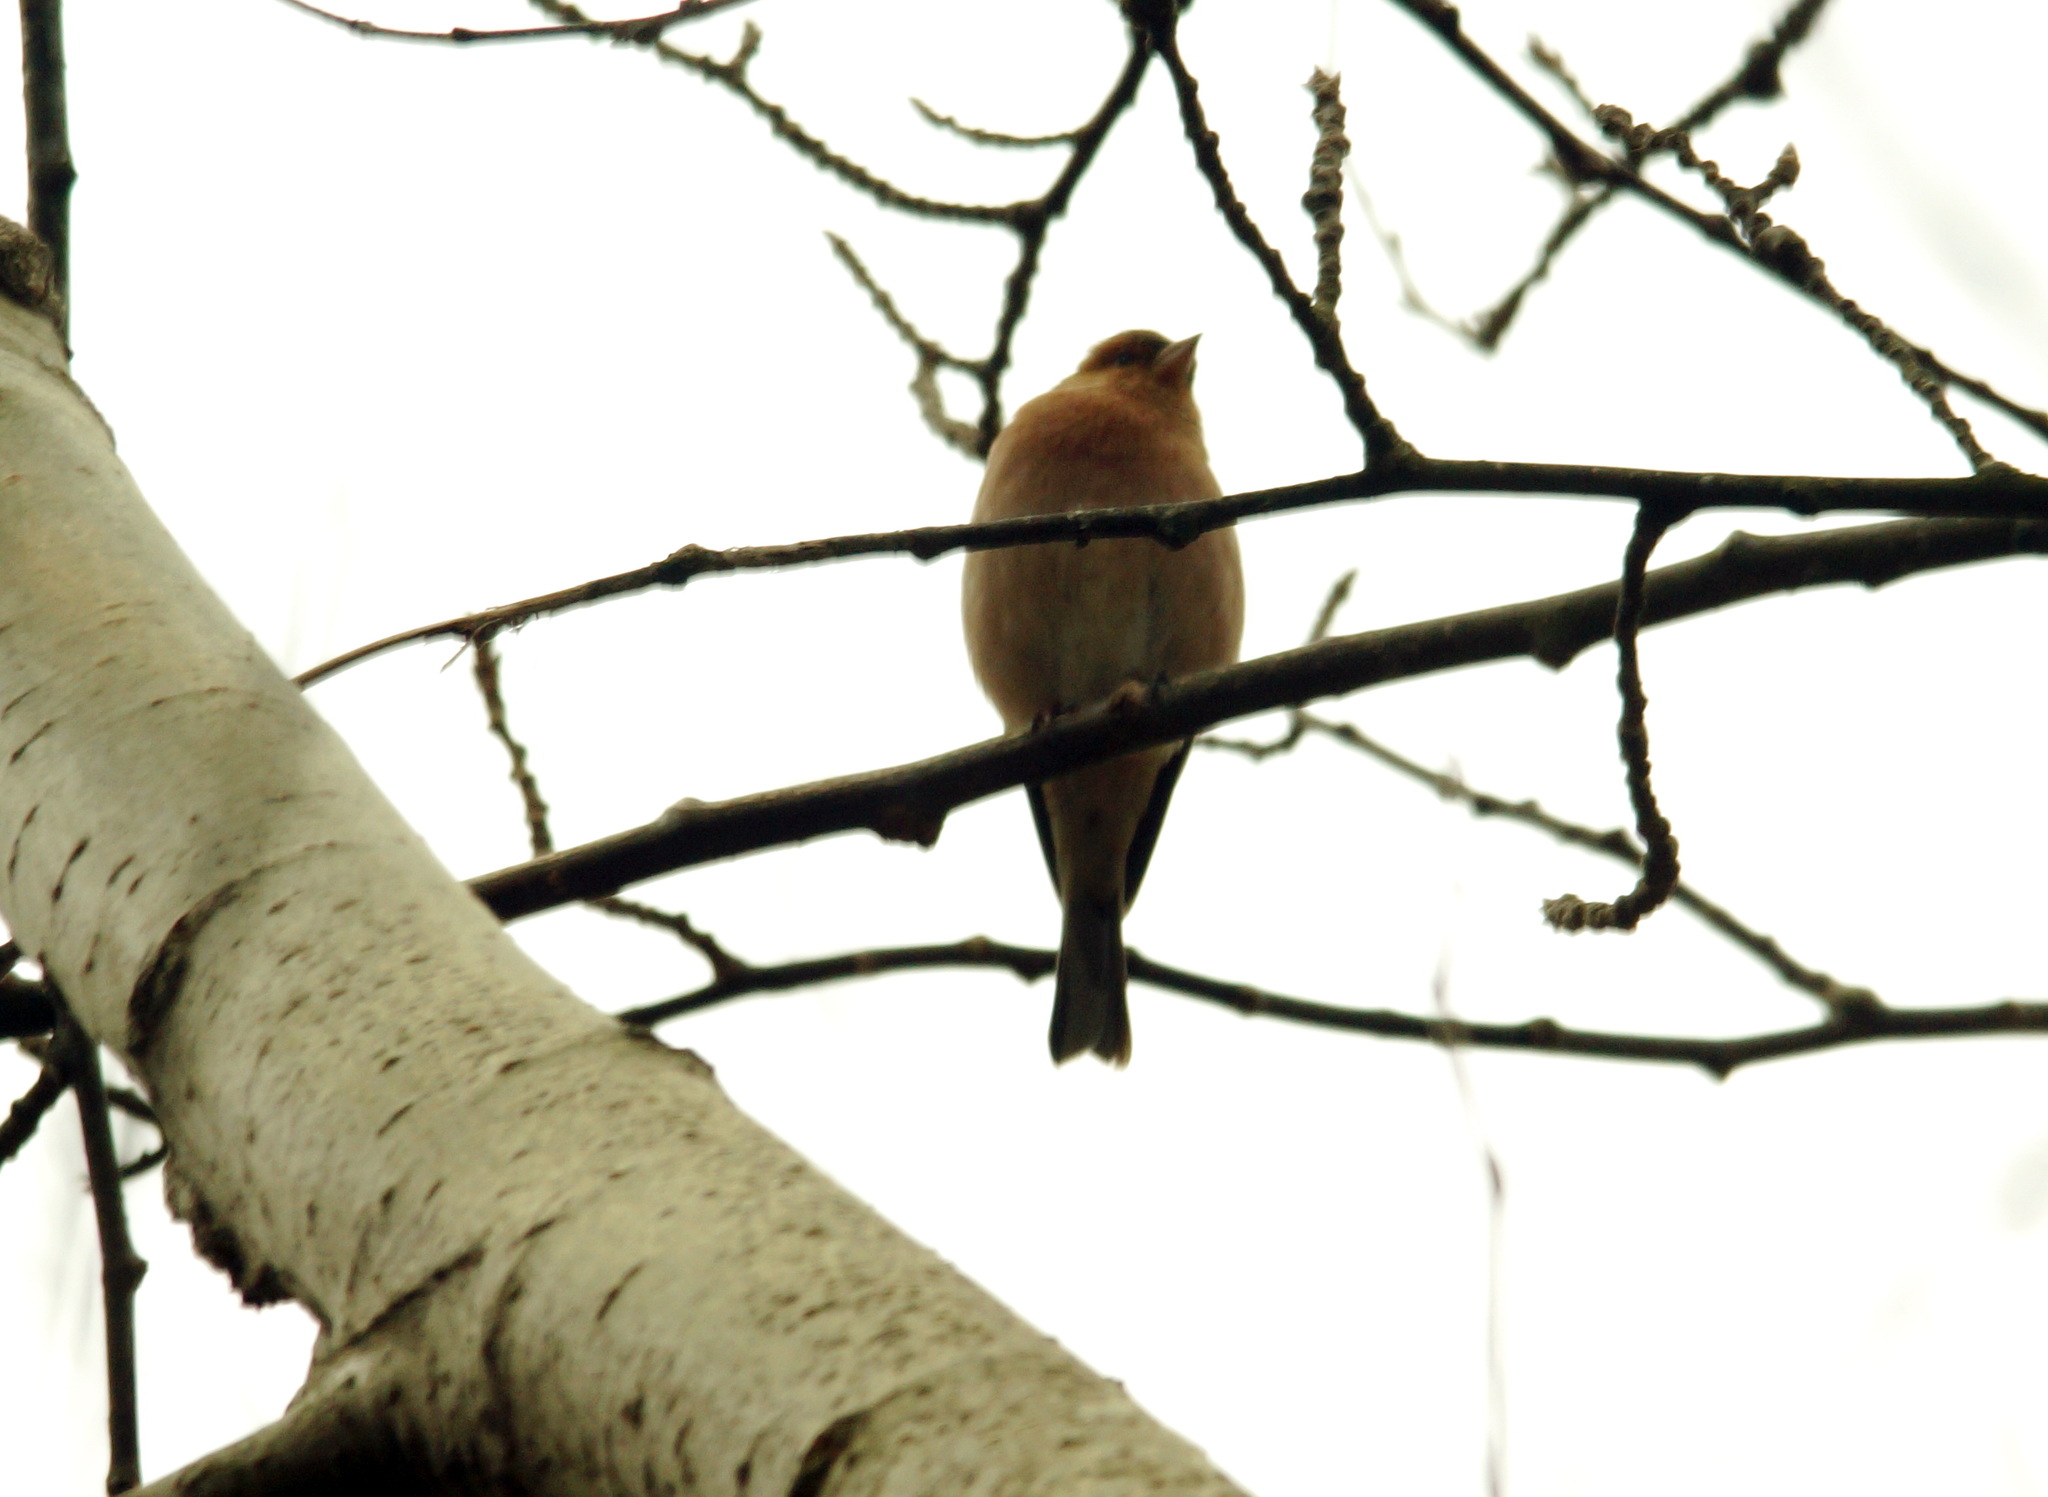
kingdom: Animalia
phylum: Chordata
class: Aves
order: Passeriformes
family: Fringillidae
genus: Fringilla
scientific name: Fringilla coelebs
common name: Common chaffinch
